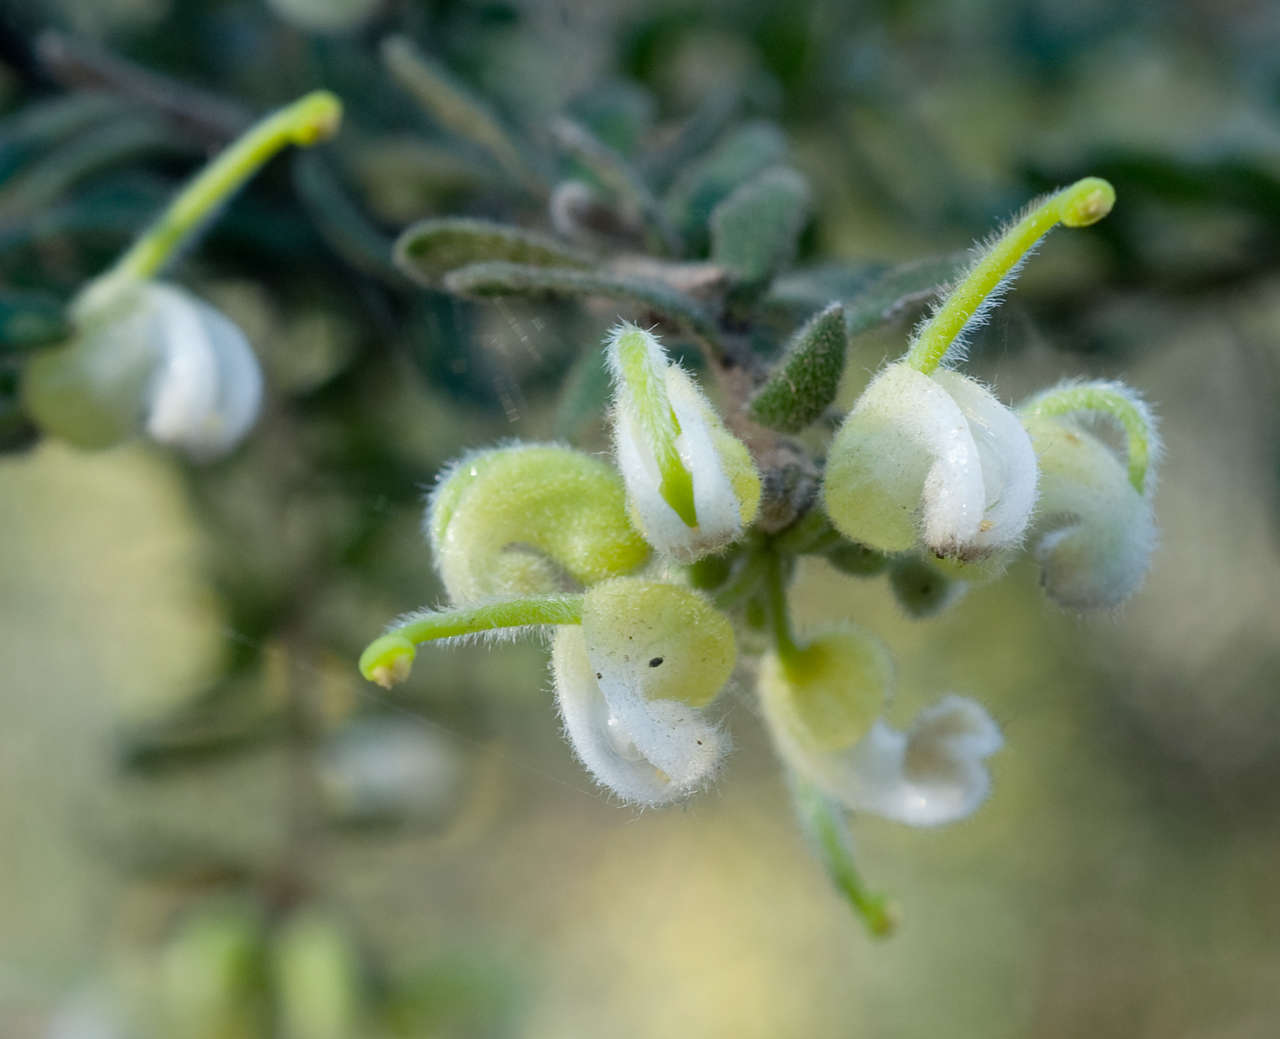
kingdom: Plantae
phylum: Tracheophyta
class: Magnoliopsida
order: Proteales
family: Proteaceae
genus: Grevillea
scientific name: Grevillea alpina
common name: Catclaws grevillea
